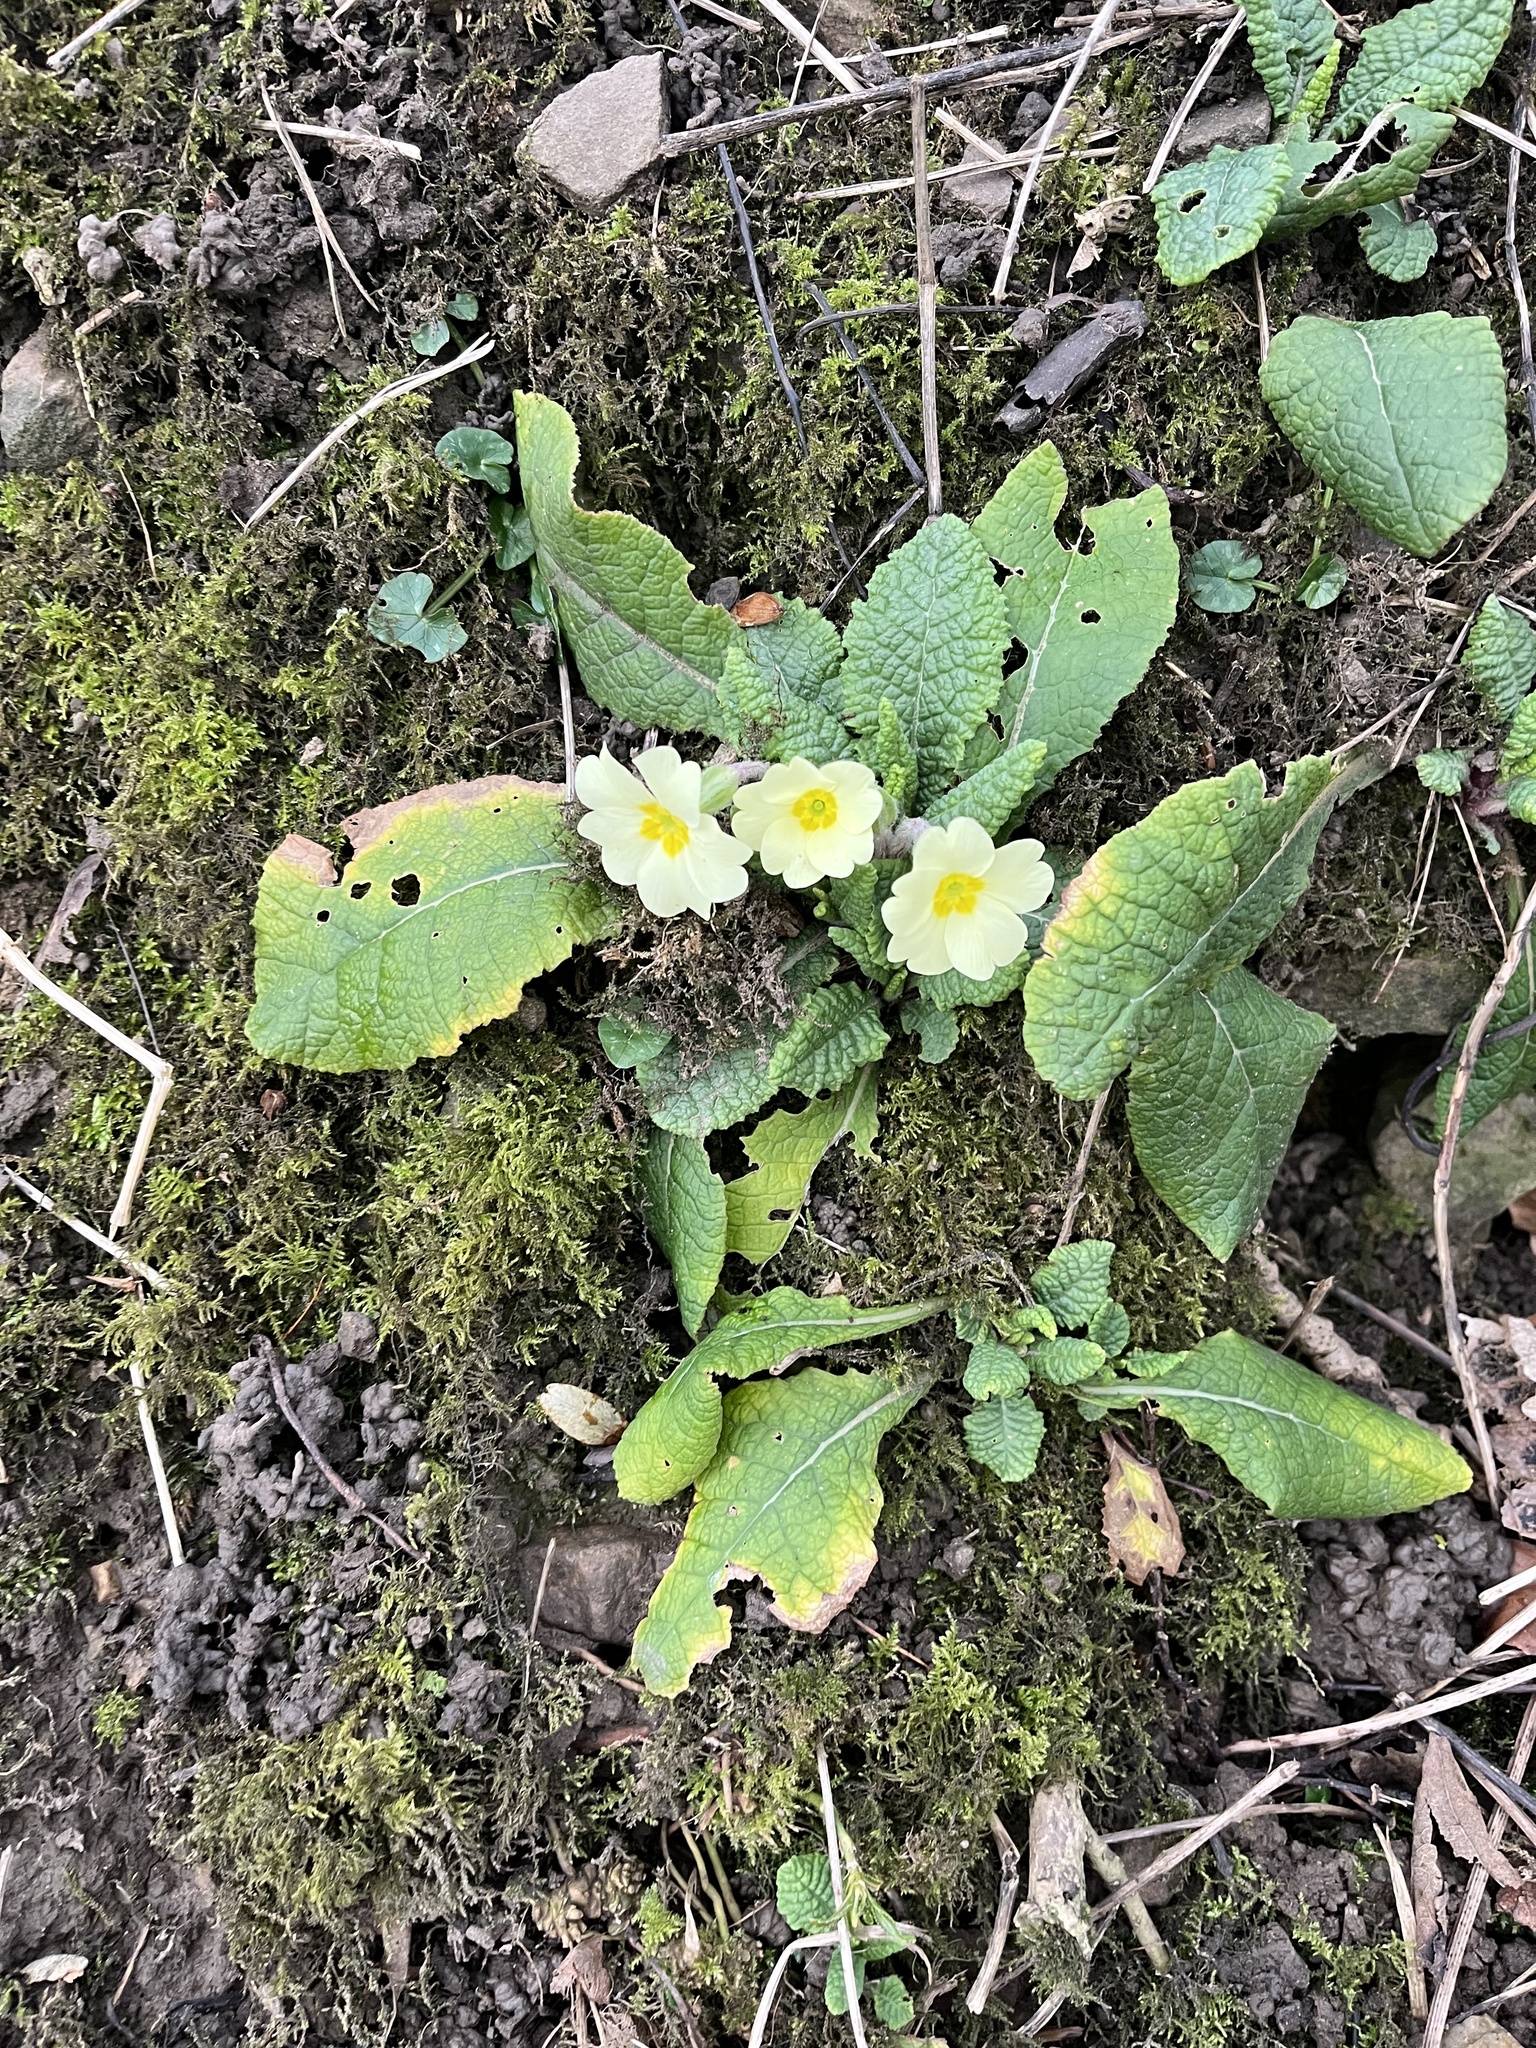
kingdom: Plantae
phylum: Tracheophyta
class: Magnoliopsida
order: Ericales
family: Primulaceae
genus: Primula
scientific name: Primula vulgaris
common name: Primrose
